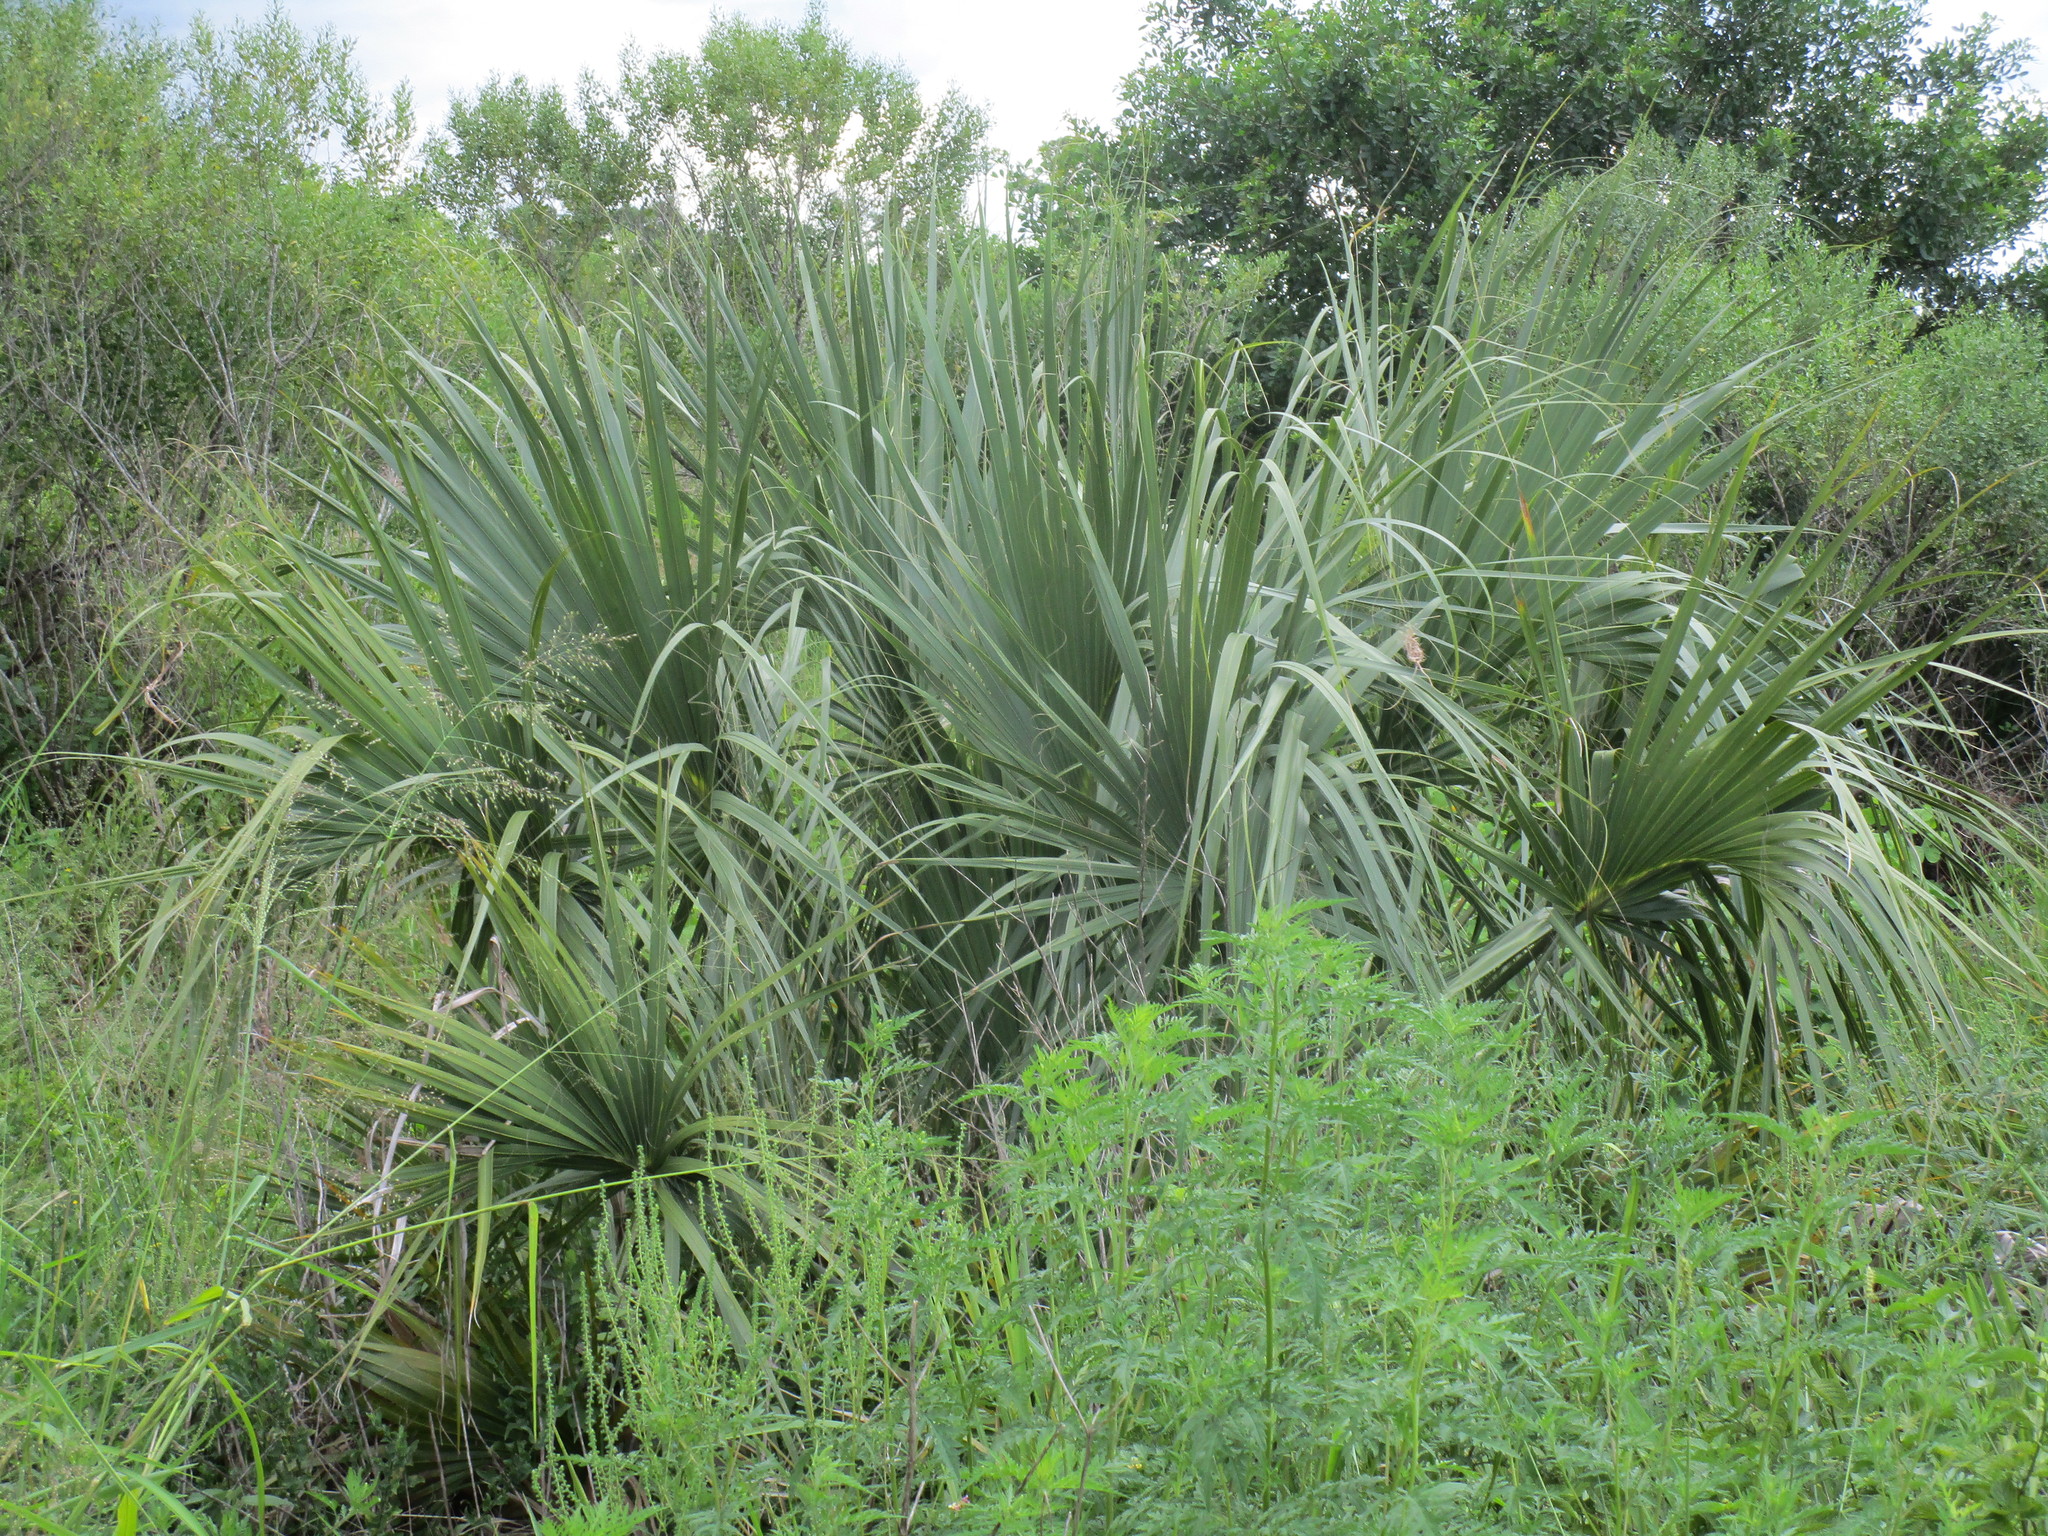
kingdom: Plantae
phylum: Tracheophyta
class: Liliopsida
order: Arecales
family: Arecaceae
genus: Sabal
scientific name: Sabal palmetto
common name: Blue palmetto
